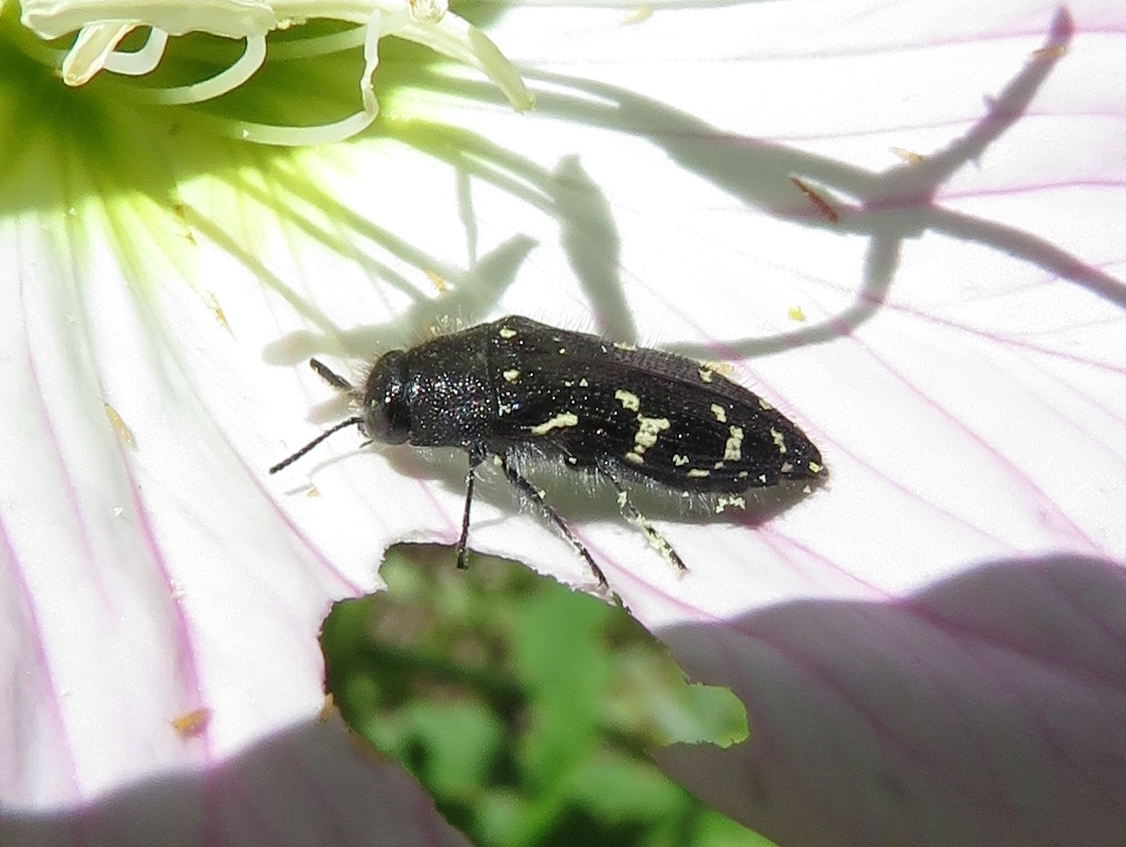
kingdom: Animalia
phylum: Arthropoda
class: Insecta
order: Coleoptera
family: Buprestidae
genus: Acmaeodera
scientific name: Acmaeodera ornata
